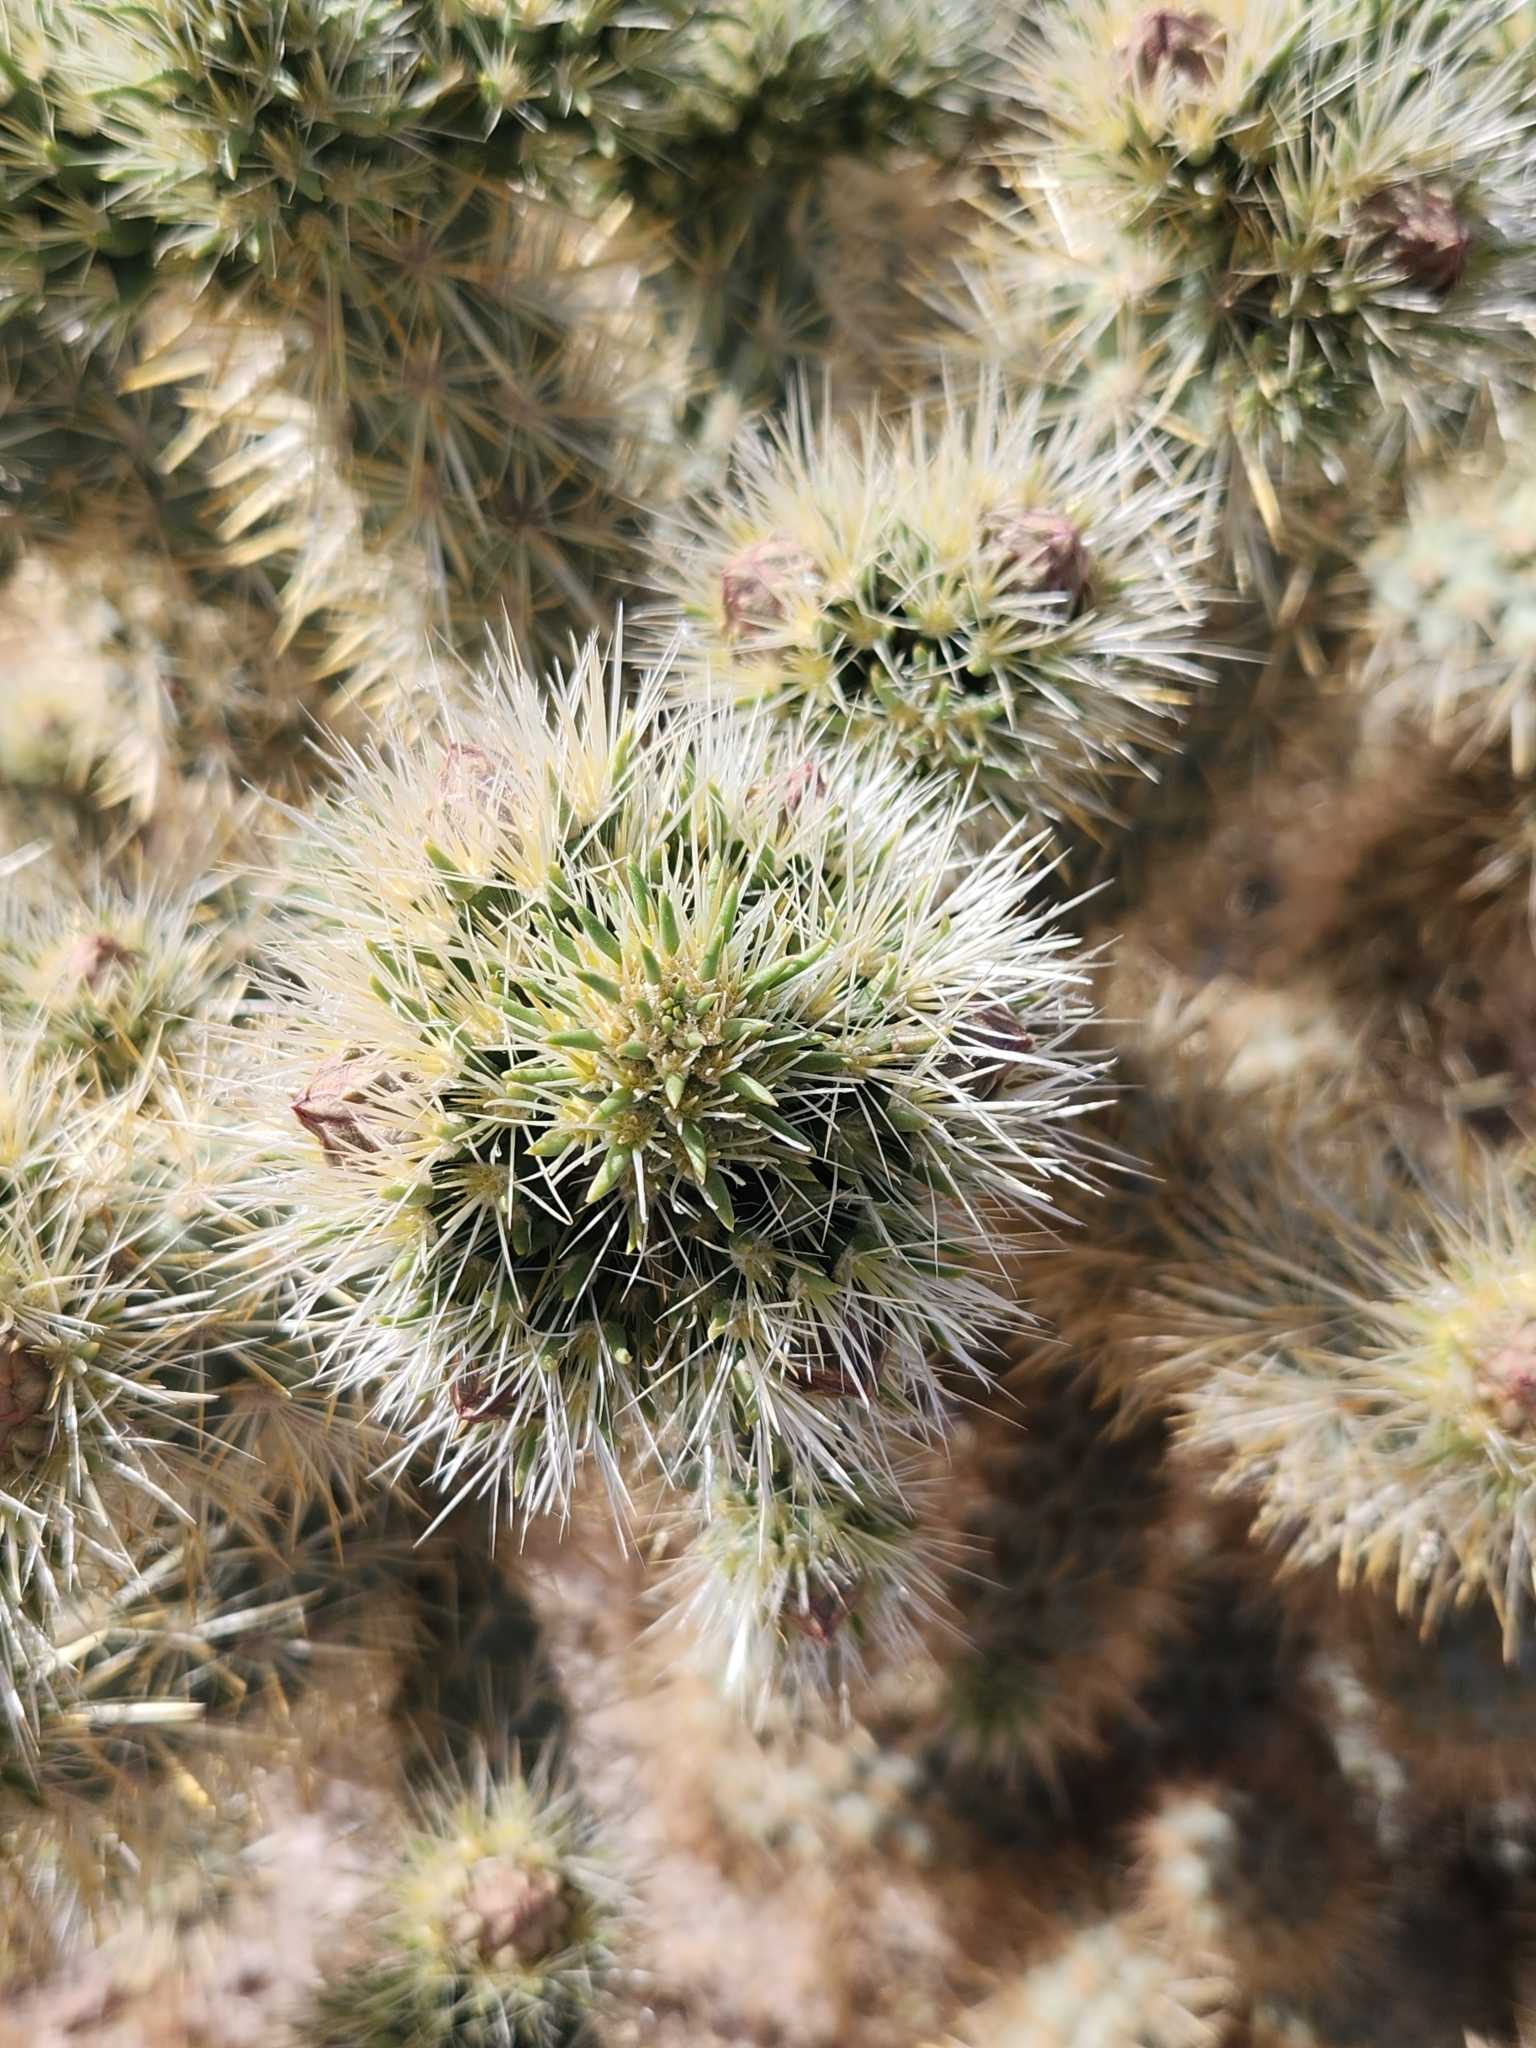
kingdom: Plantae
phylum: Tracheophyta
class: Magnoliopsida
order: Caryophyllales
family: Cactaceae
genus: Cylindropuntia
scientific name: Cylindropuntia echinocarpa
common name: Ground cholla
